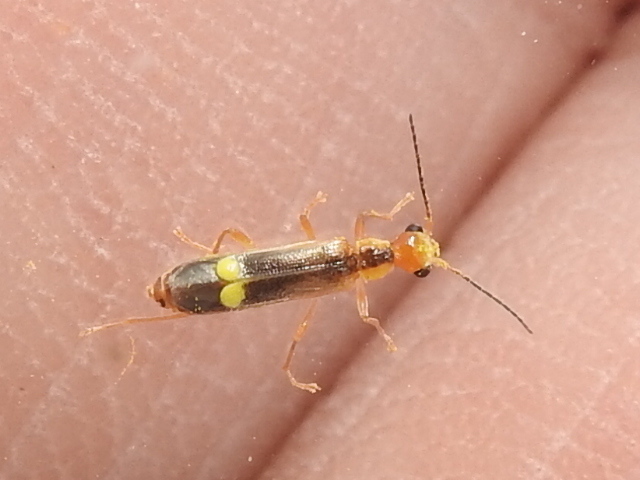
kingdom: Animalia
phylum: Arthropoda
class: Insecta
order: Coleoptera
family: Cantharidae
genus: Malthinus
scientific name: Malthinus occipitalis
